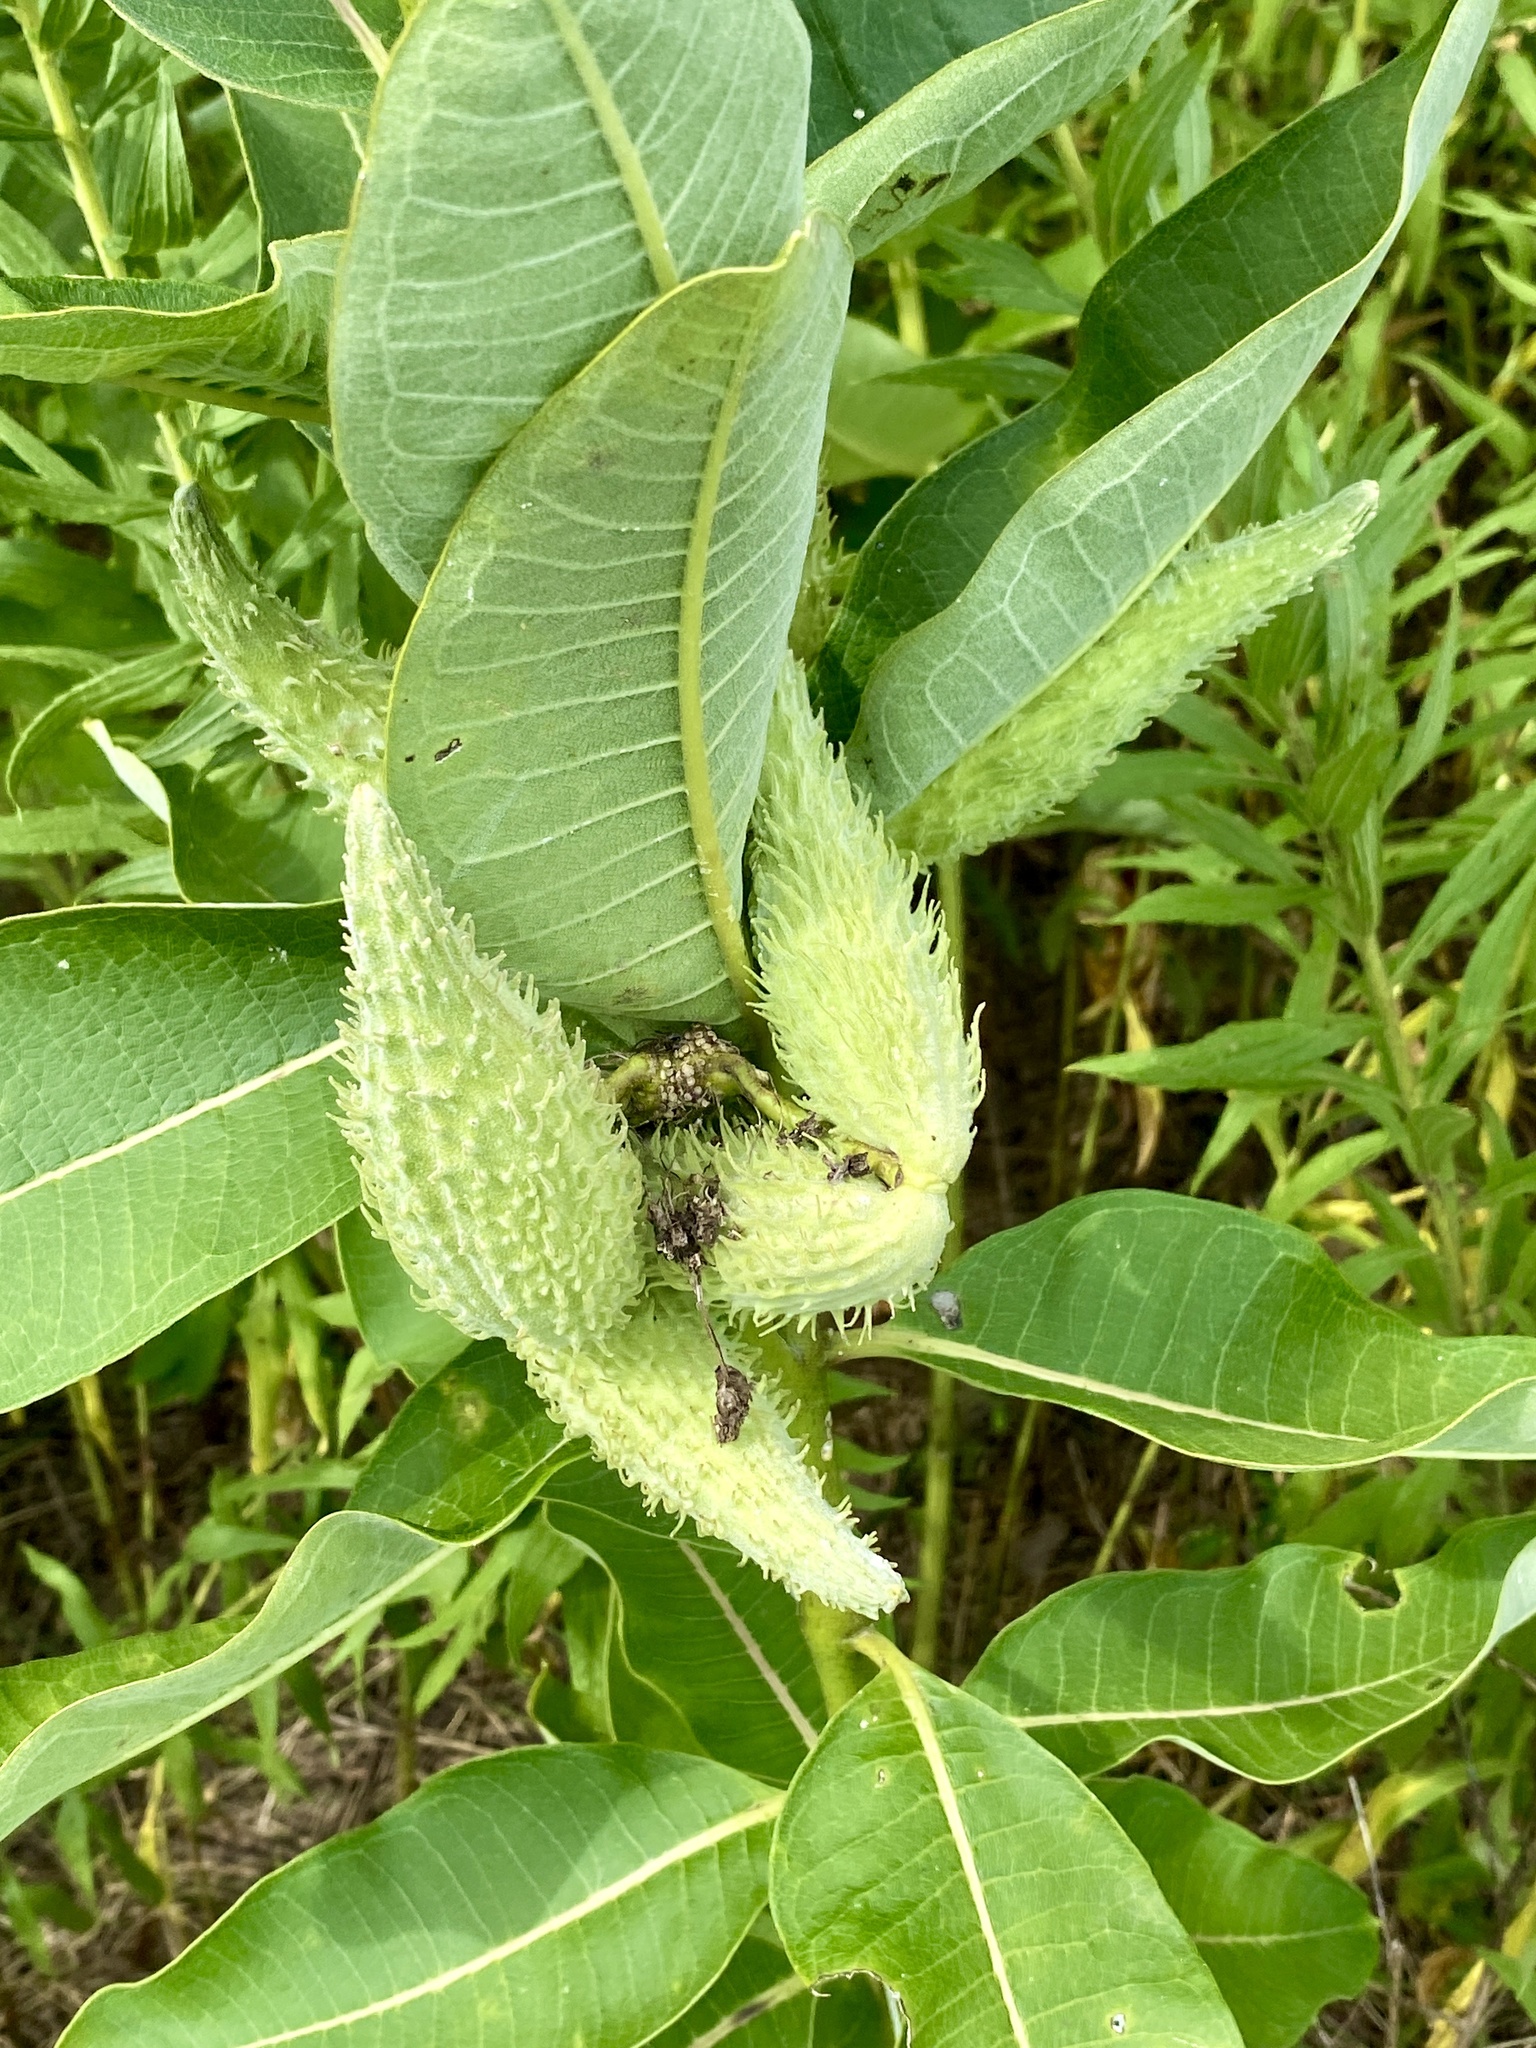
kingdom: Plantae
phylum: Tracheophyta
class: Magnoliopsida
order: Gentianales
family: Apocynaceae
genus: Asclepias
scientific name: Asclepias syriaca
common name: Common milkweed
